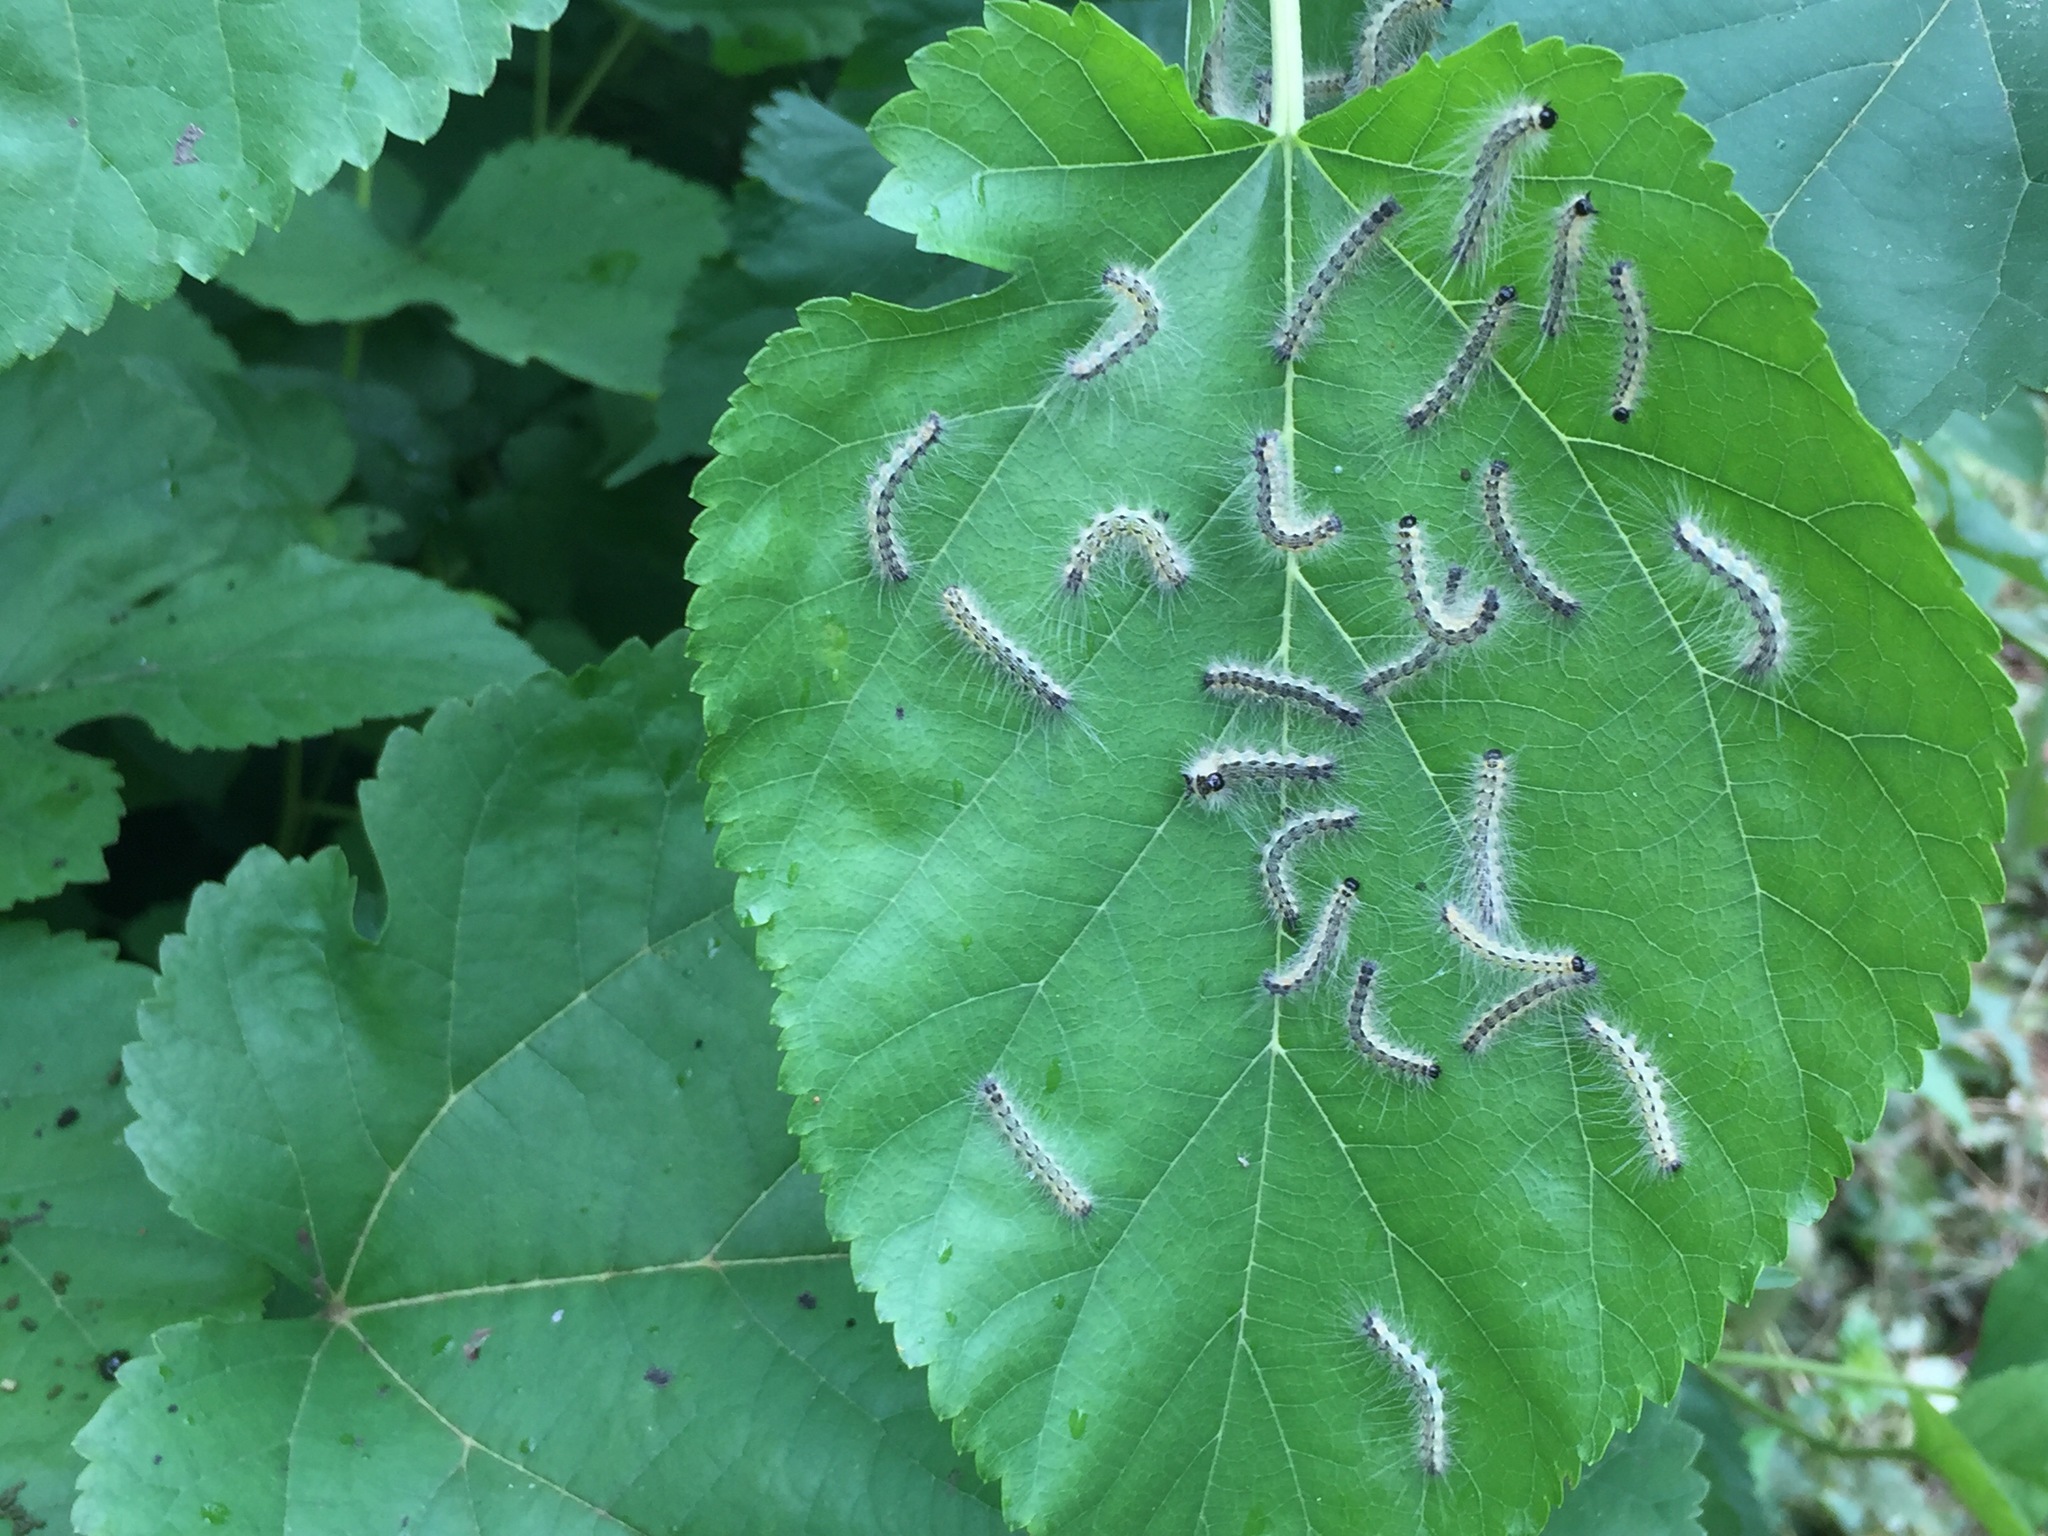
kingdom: Animalia
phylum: Arthropoda
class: Insecta
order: Lepidoptera
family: Erebidae
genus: Hyphantria
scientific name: Hyphantria cunea
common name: American white moth
